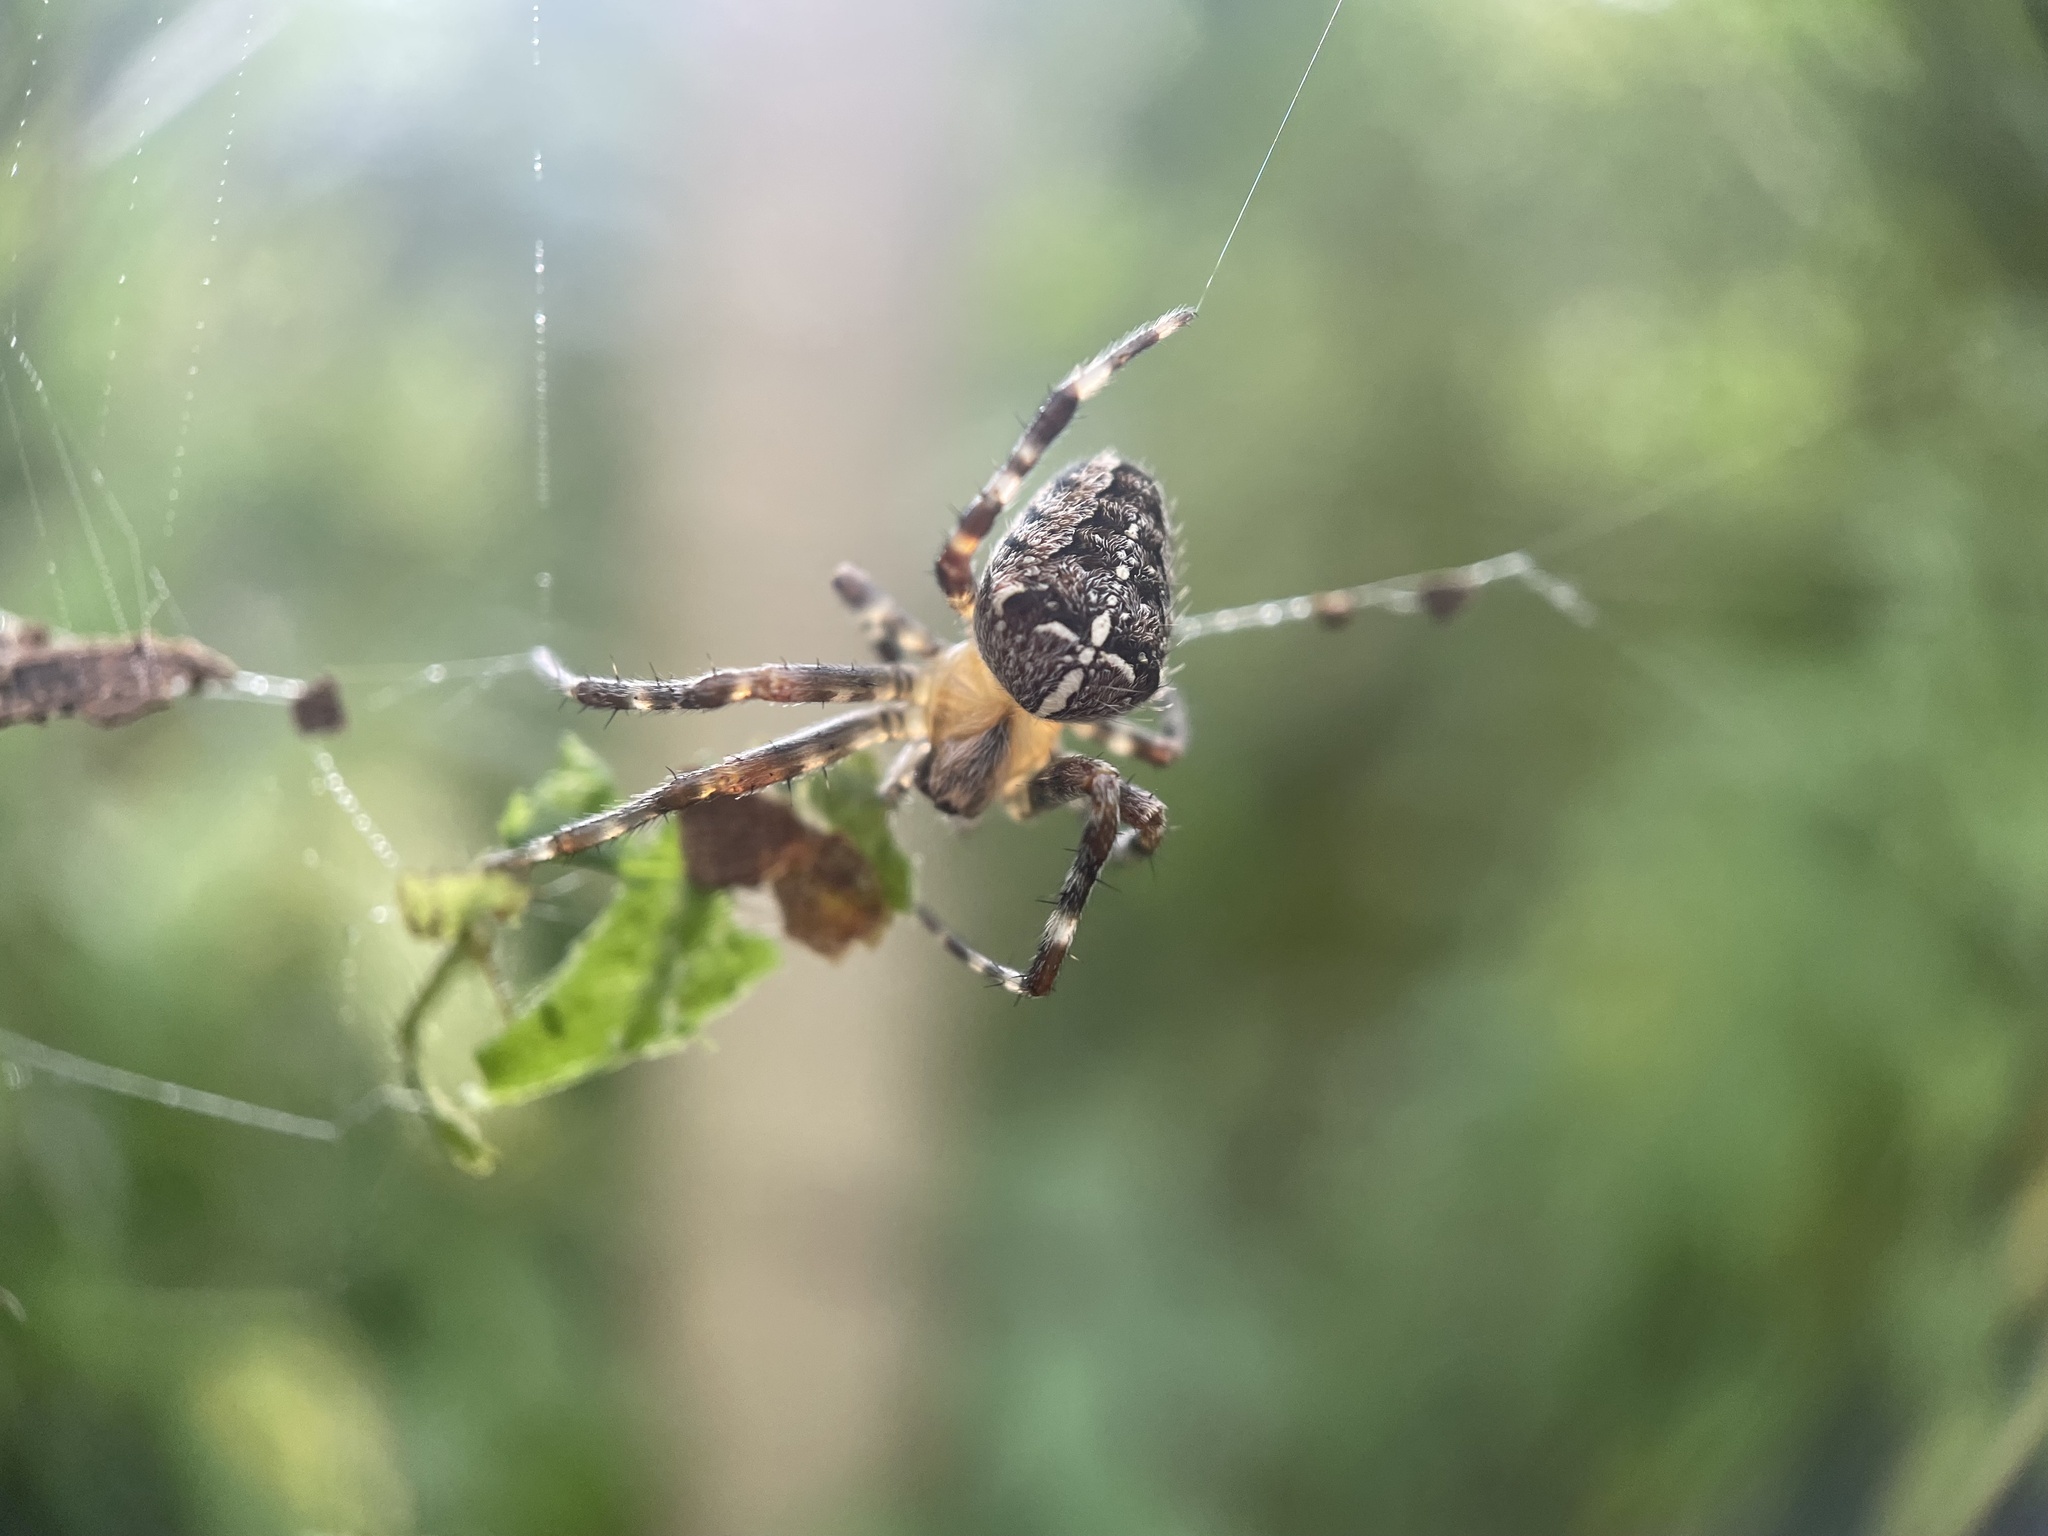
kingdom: Animalia
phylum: Arthropoda
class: Arachnida
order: Araneae
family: Araneidae
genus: Araneus
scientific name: Araneus diadematus
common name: Cross orbweaver
